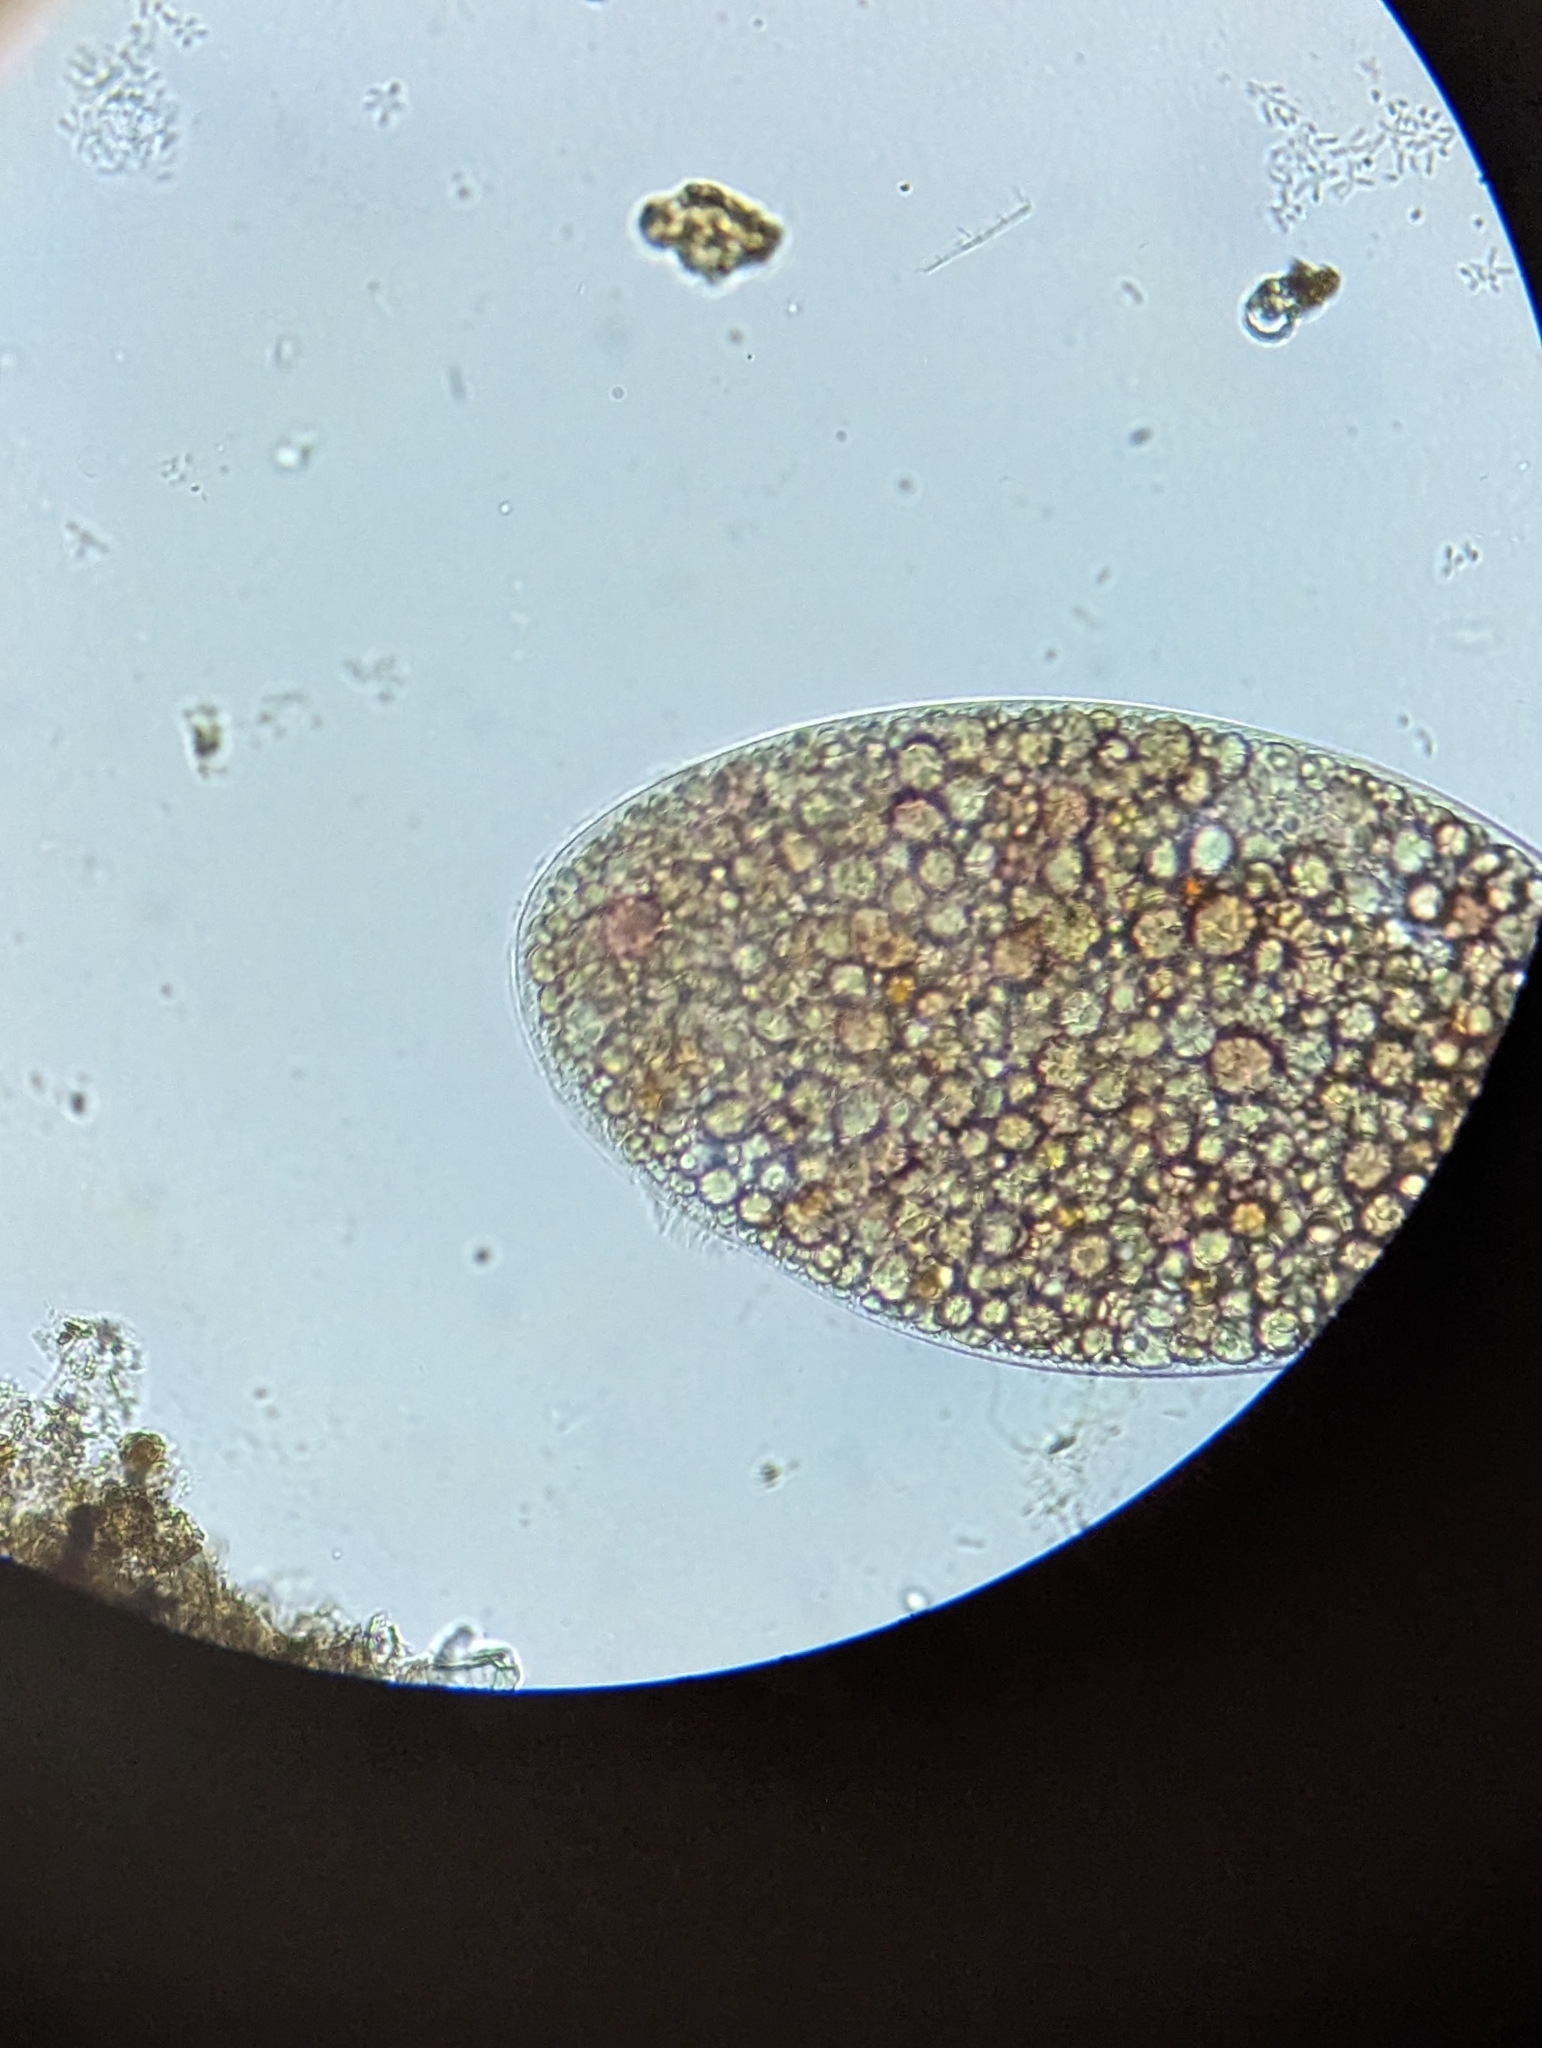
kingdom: Chromista
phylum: Ciliophora
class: Oligohymenophorea
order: Hymenostomatida
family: Ophryoglenidae
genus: Ophryoglena
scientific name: Ophryoglena
